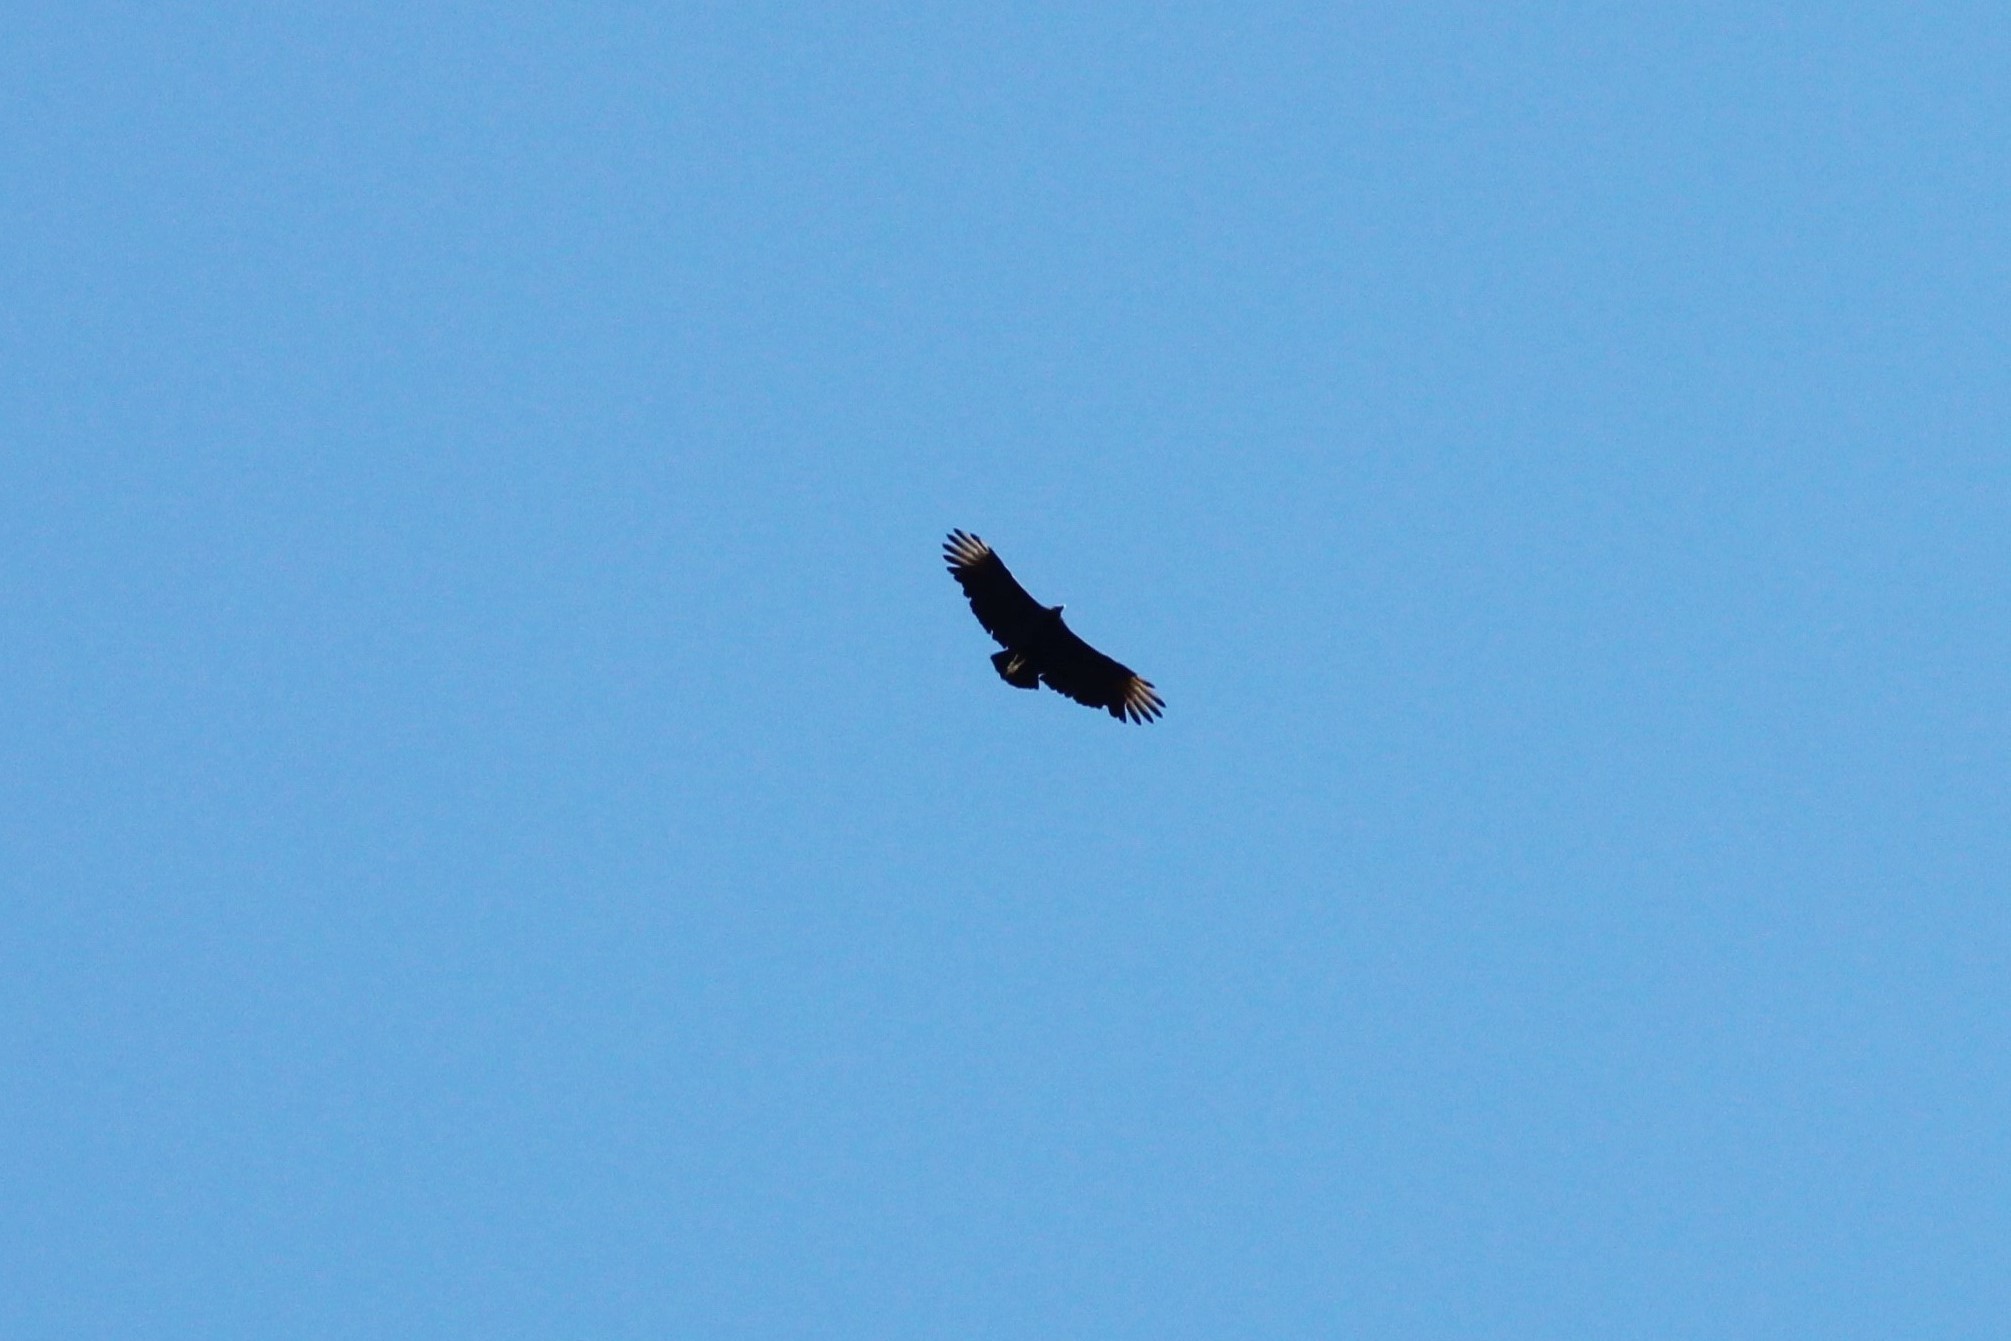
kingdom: Animalia
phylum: Chordata
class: Aves
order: Accipitriformes
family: Cathartidae
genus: Coragyps
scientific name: Coragyps atratus
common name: Black vulture
